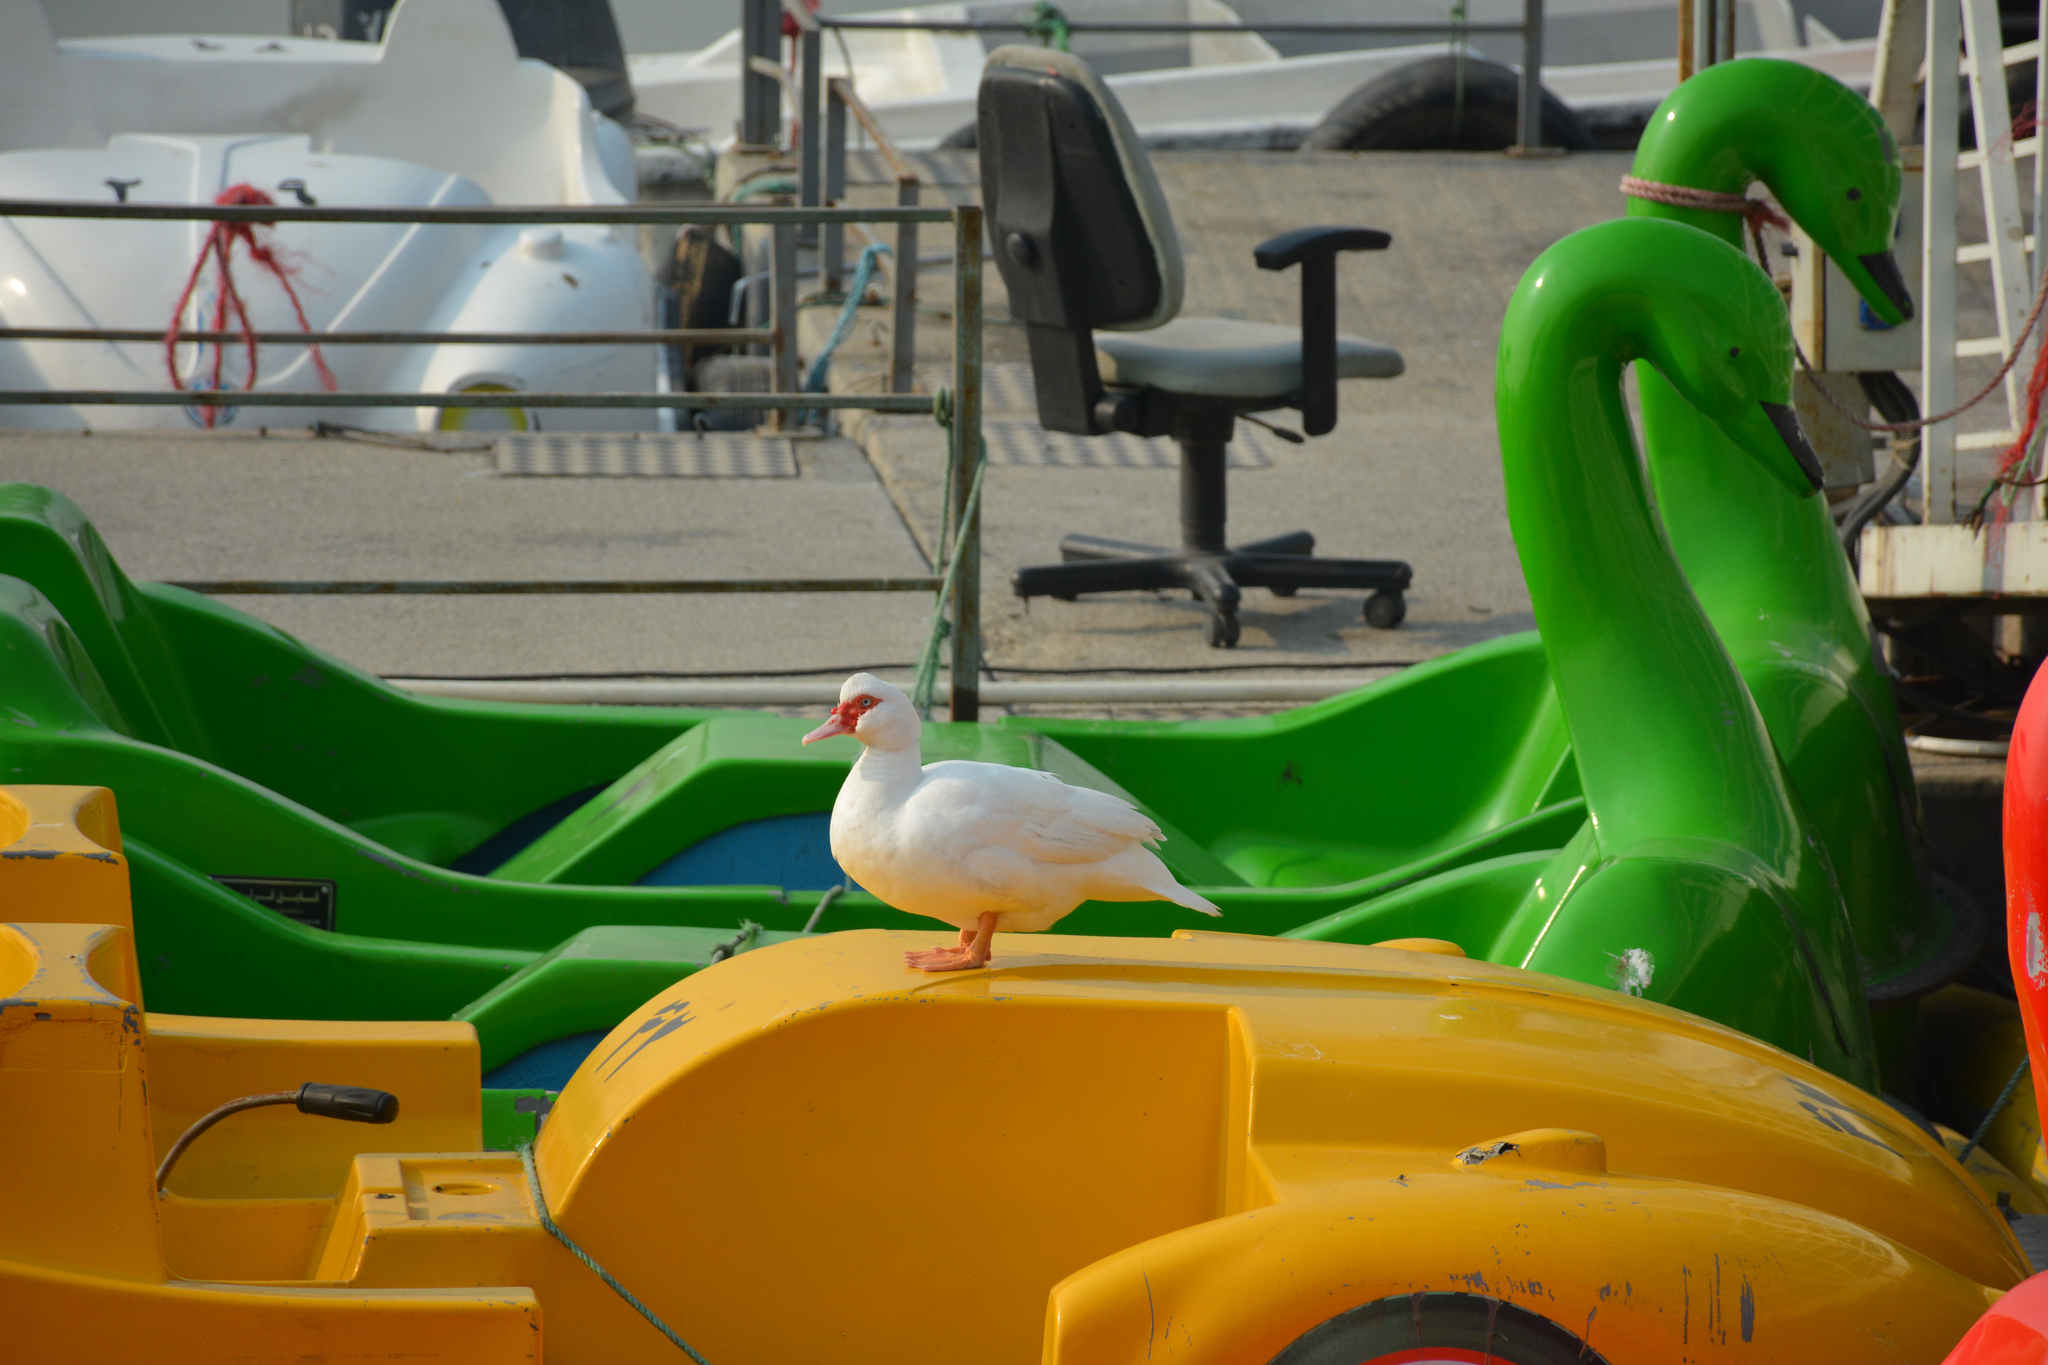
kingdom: Animalia
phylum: Chordata
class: Aves
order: Anseriformes
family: Anatidae
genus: Cairina
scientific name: Cairina moschata
